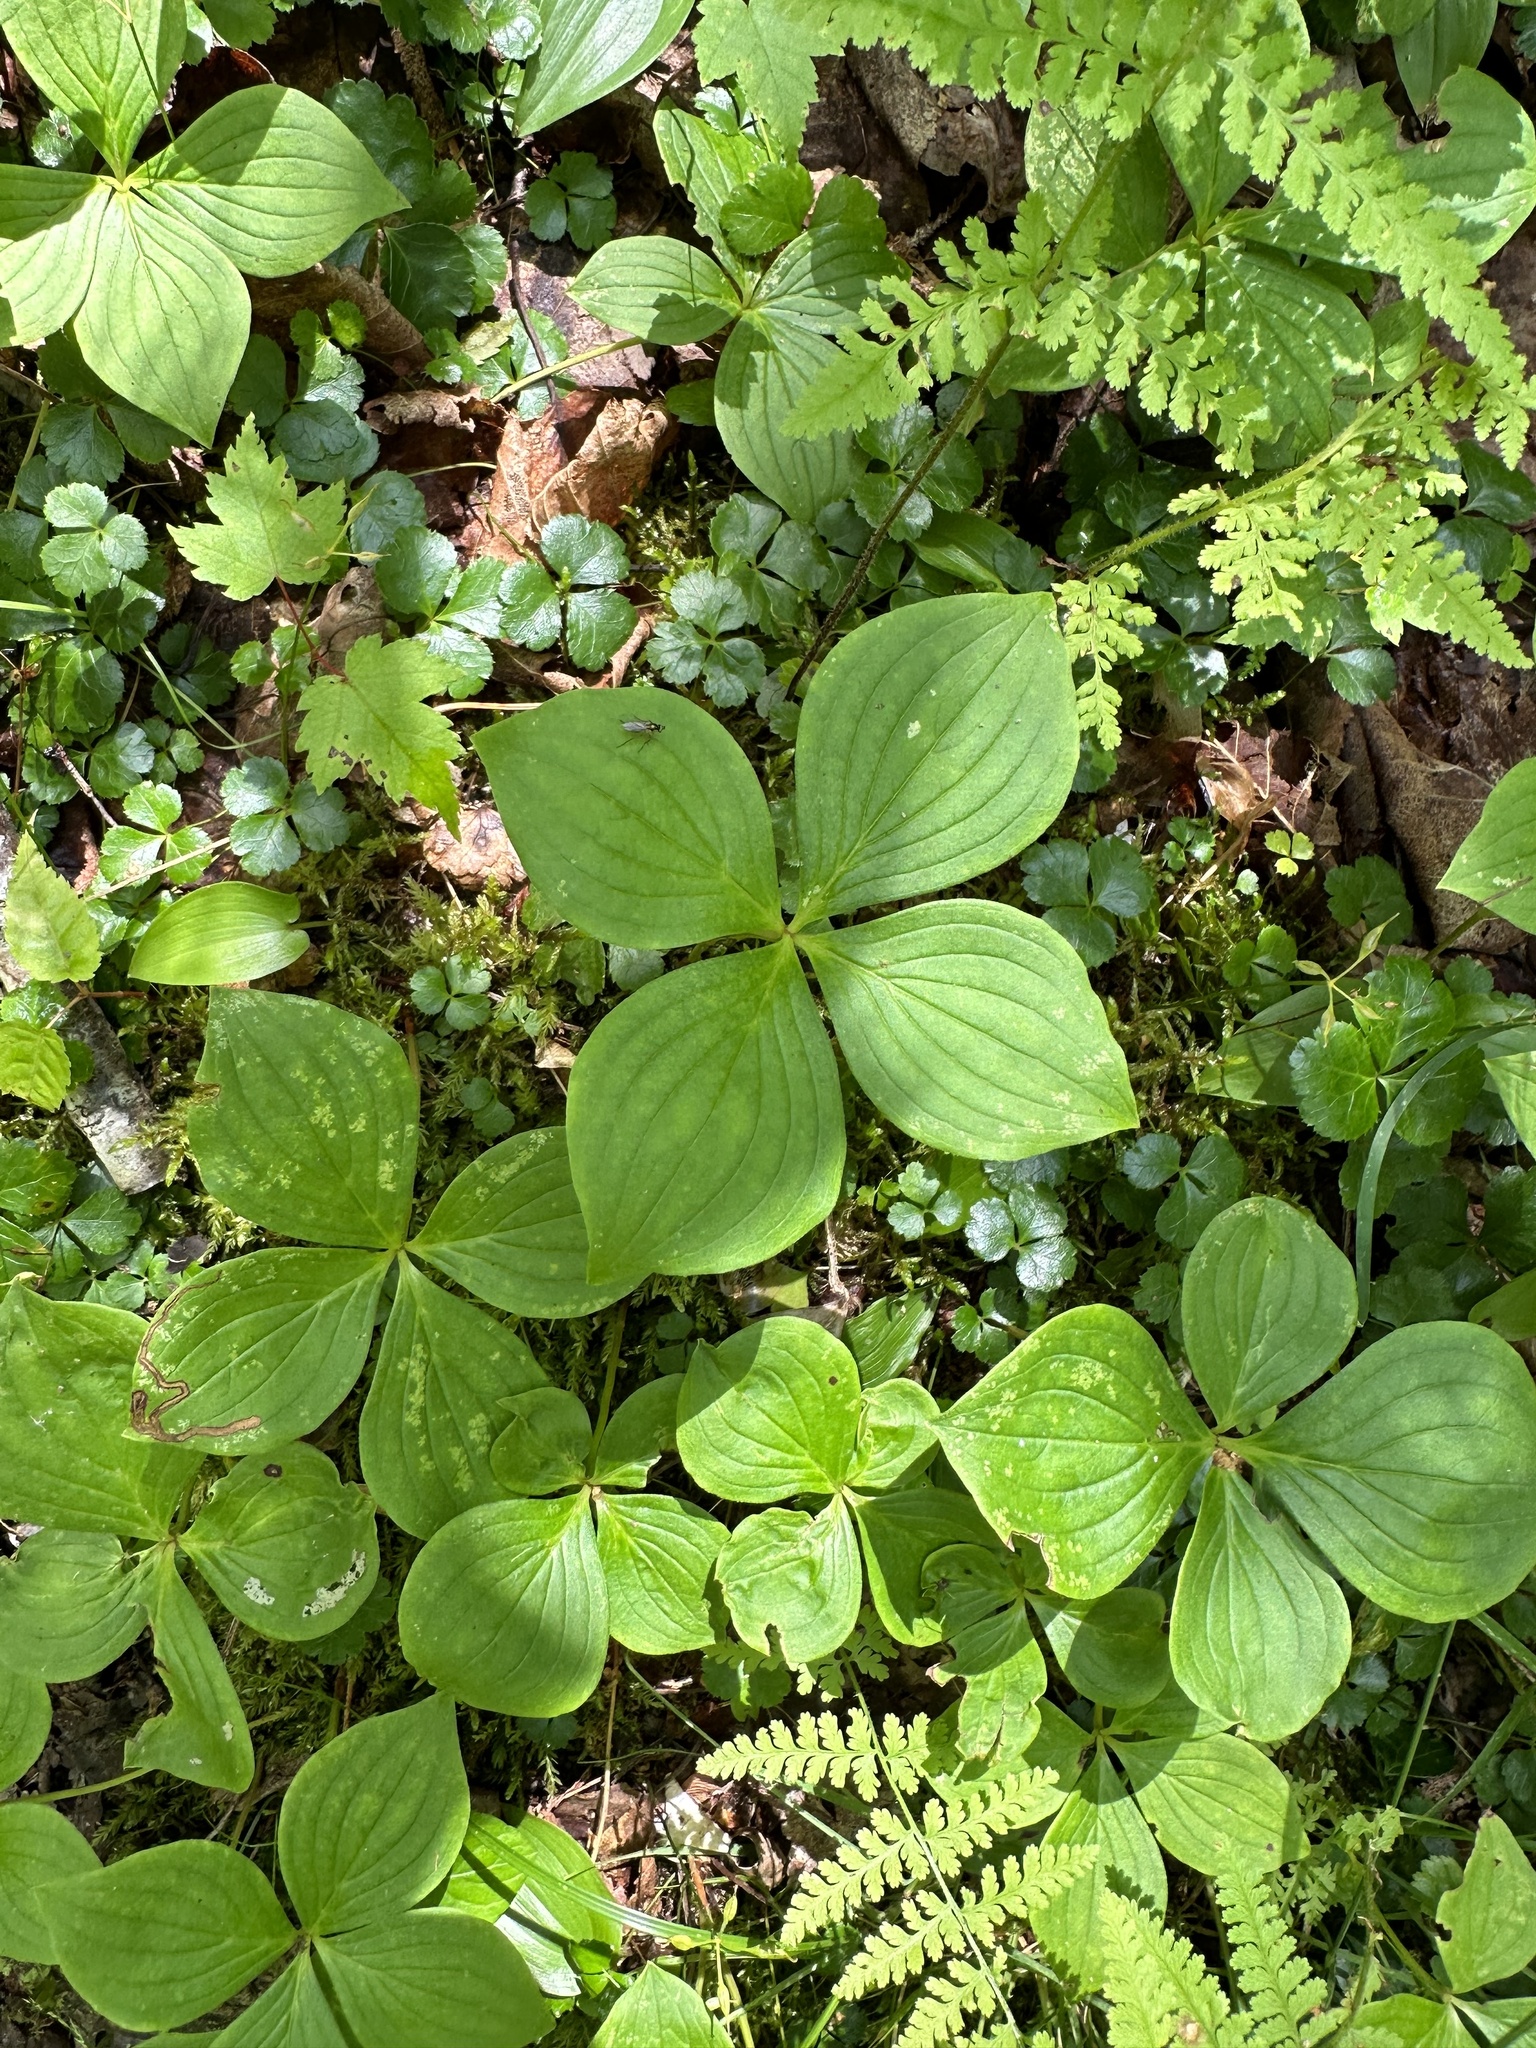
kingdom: Plantae
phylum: Tracheophyta
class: Magnoliopsida
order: Cornales
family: Cornaceae
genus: Cornus
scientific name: Cornus canadensis
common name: Creeping dogwood
